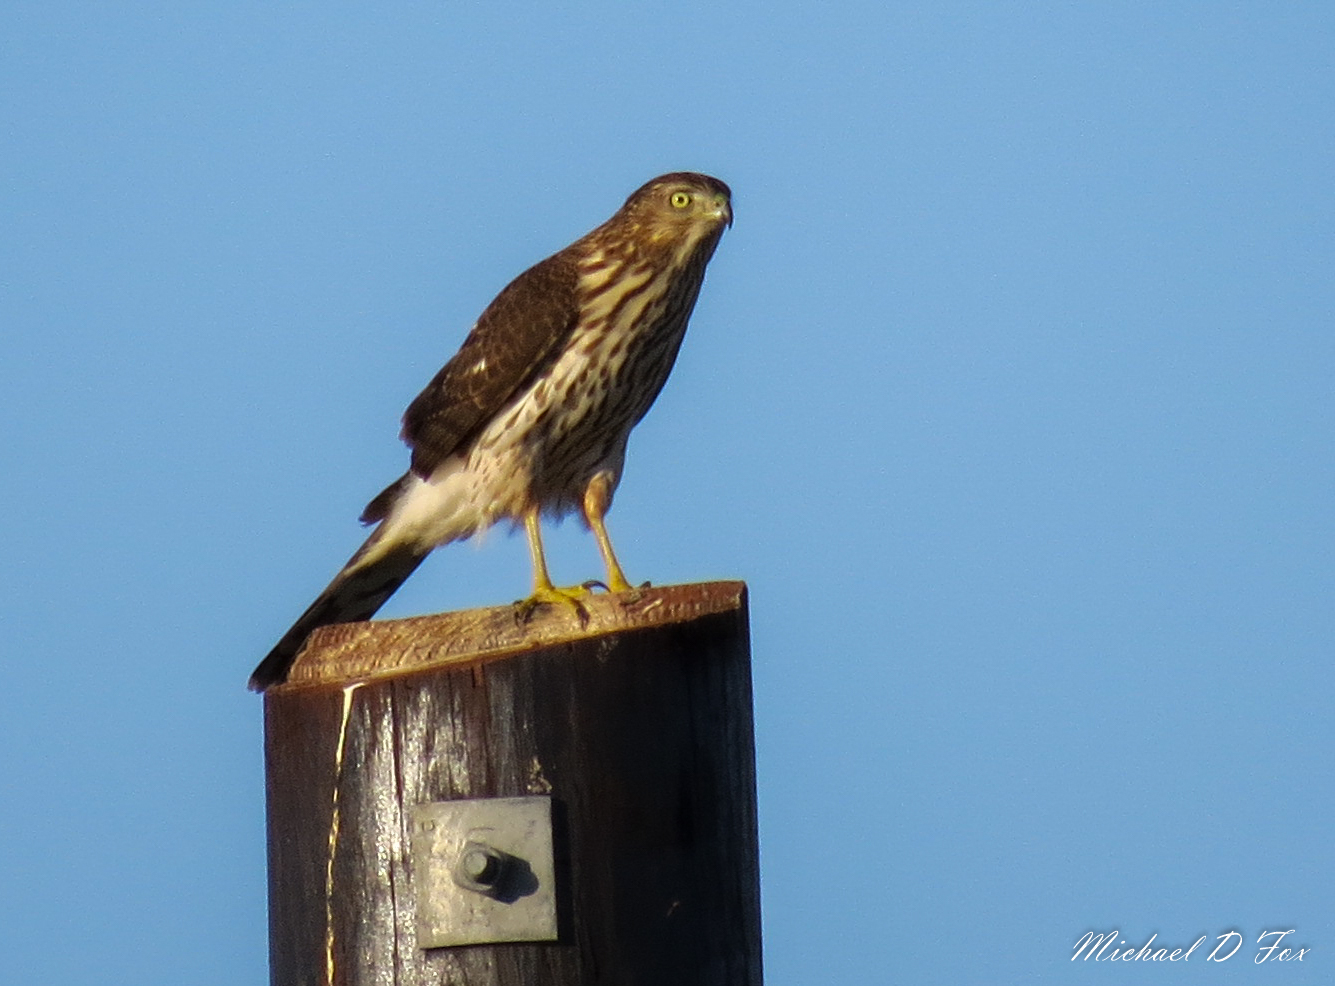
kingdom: Animalia
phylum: Chordata
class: Aves
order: Accipitriformes
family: Accipitridae
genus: Accipiter
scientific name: Accipiter cooperii
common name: Cooper's hawk
